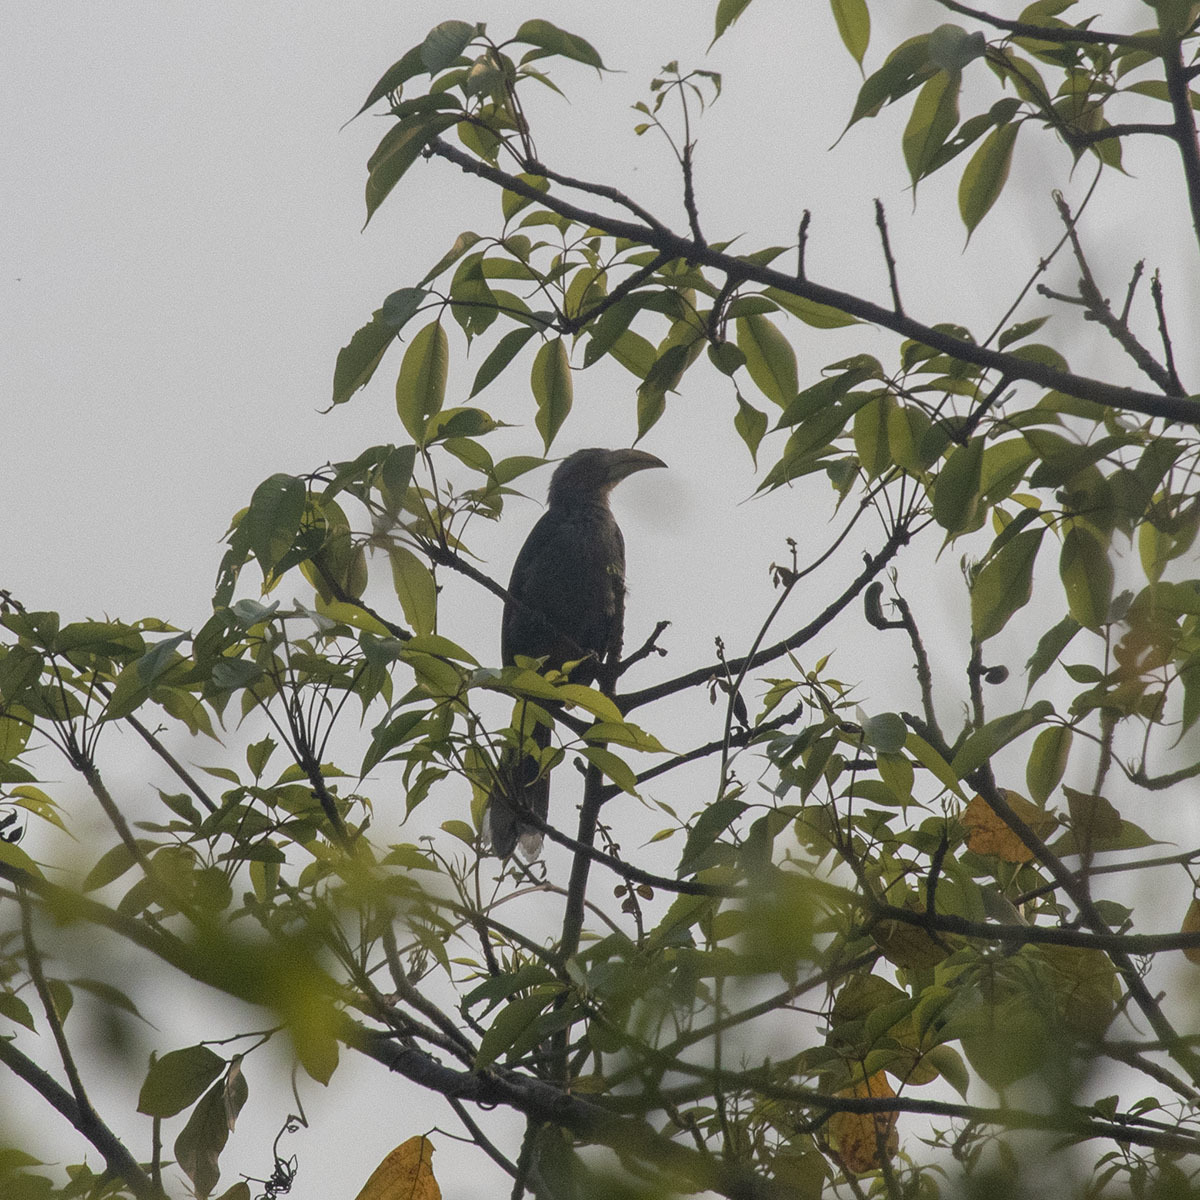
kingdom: Animalia
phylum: Chordata
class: Aves
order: Bucerotiformes
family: Bucerotidae
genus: Ocyceros
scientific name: Ocyceros griseus
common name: Malabar grey hornbill
